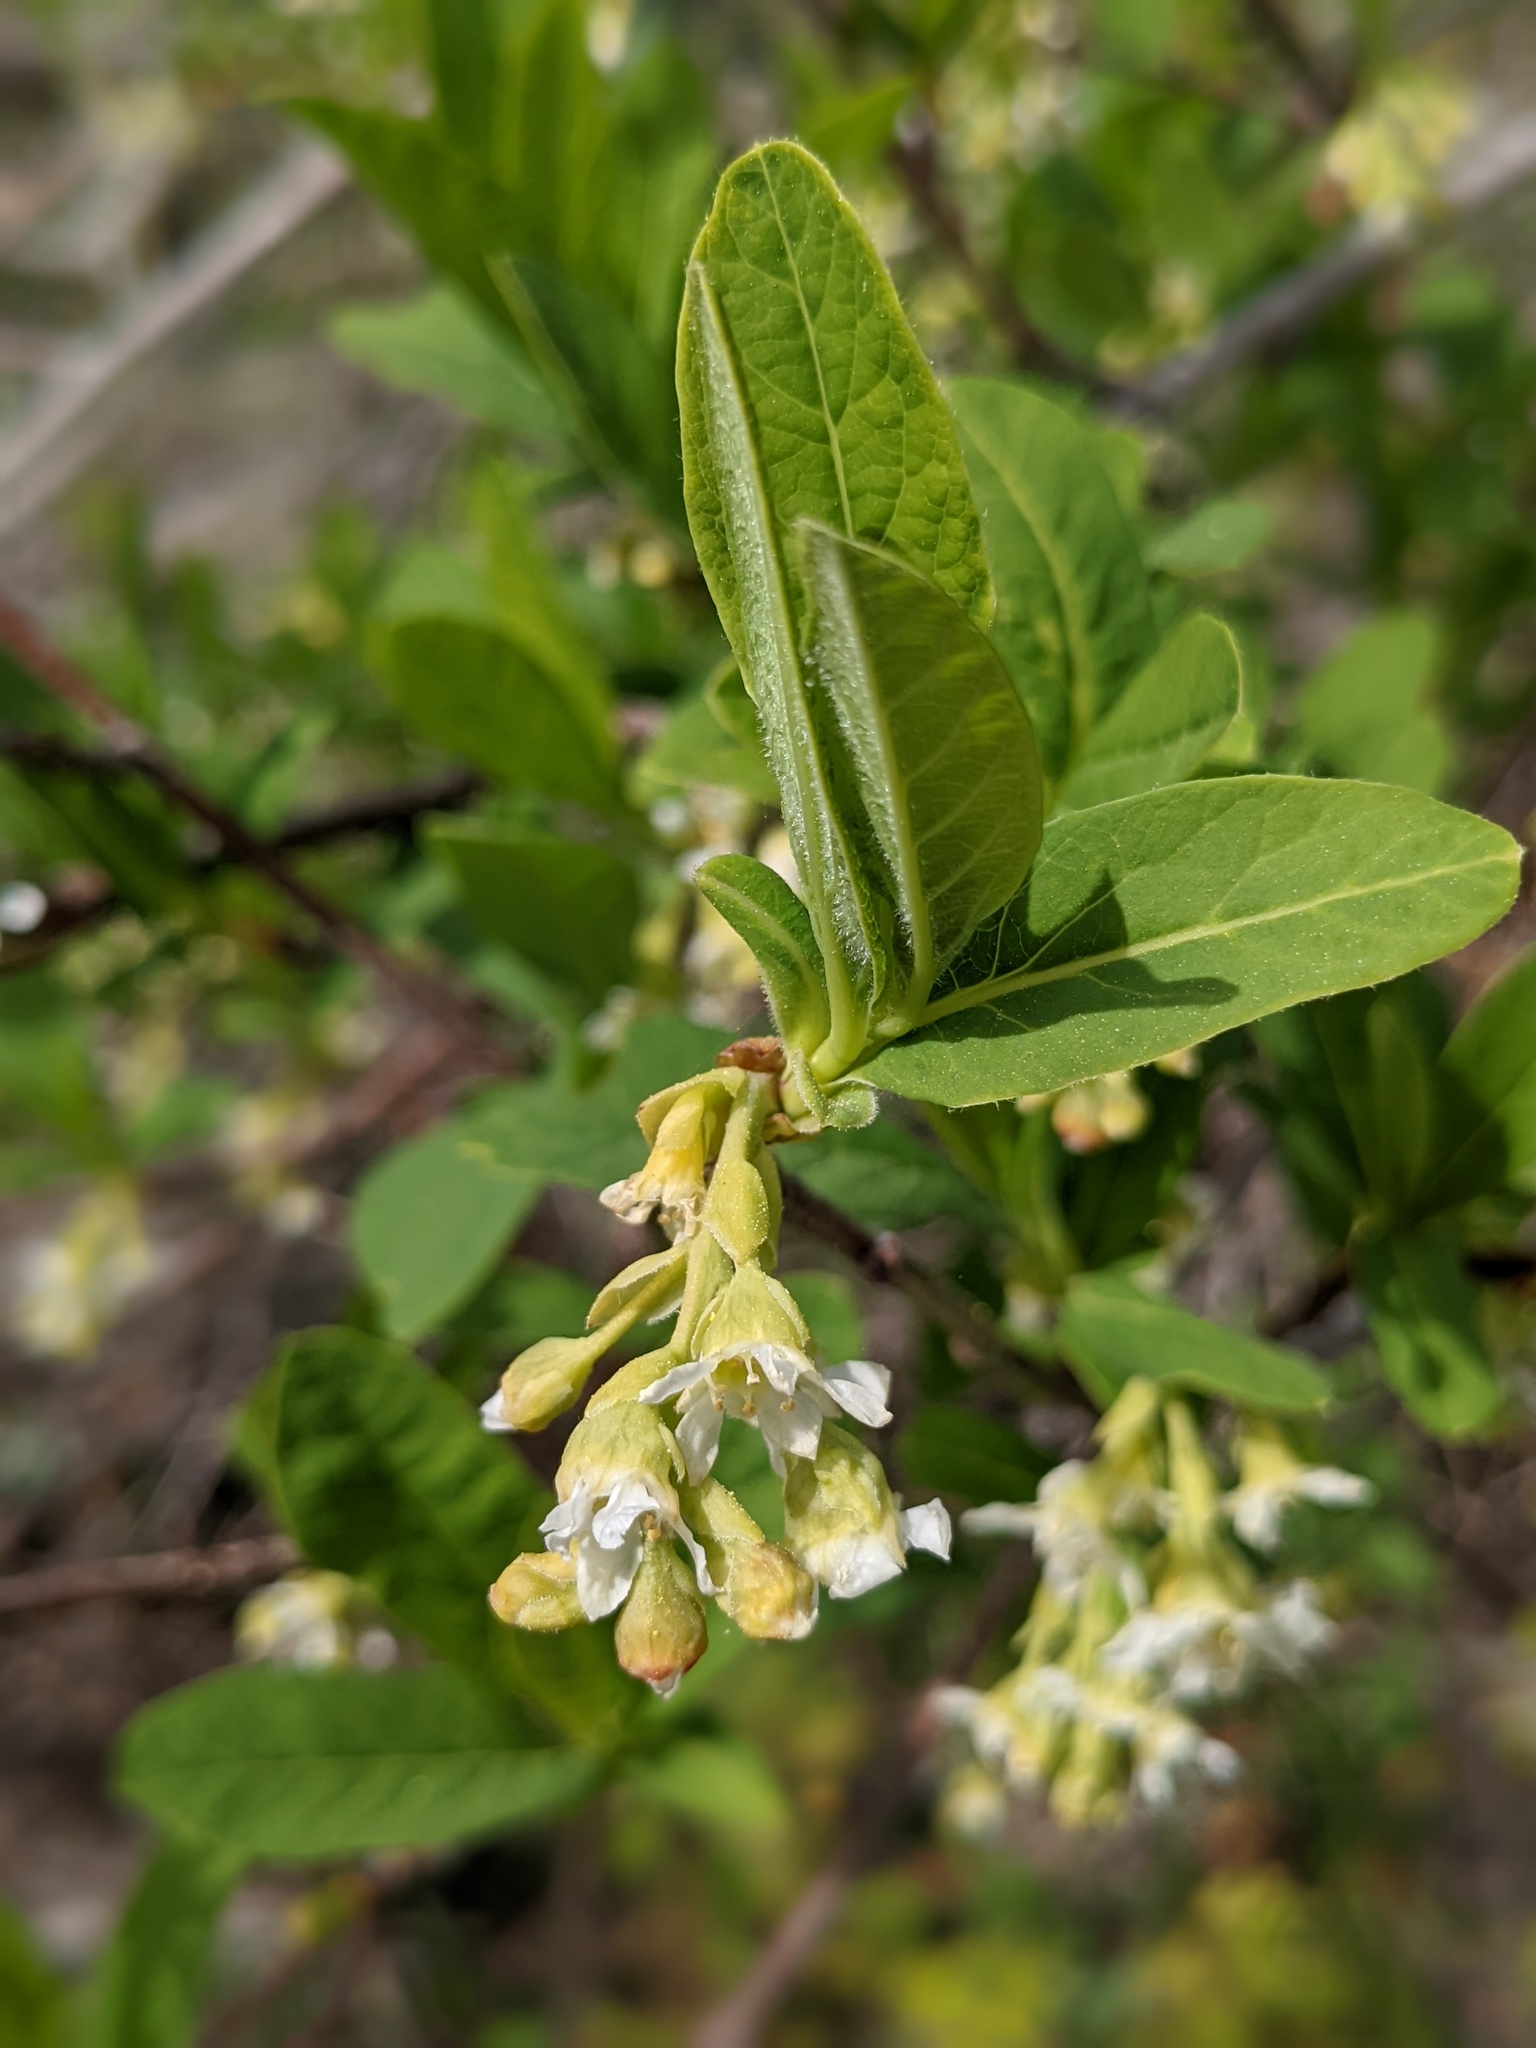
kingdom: Plantae
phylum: Tracheophyta
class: Magnoliopsida
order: Rosales
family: Rosaceae
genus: Oemleria
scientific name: Oemleria cerasiformis
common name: Osoberry
